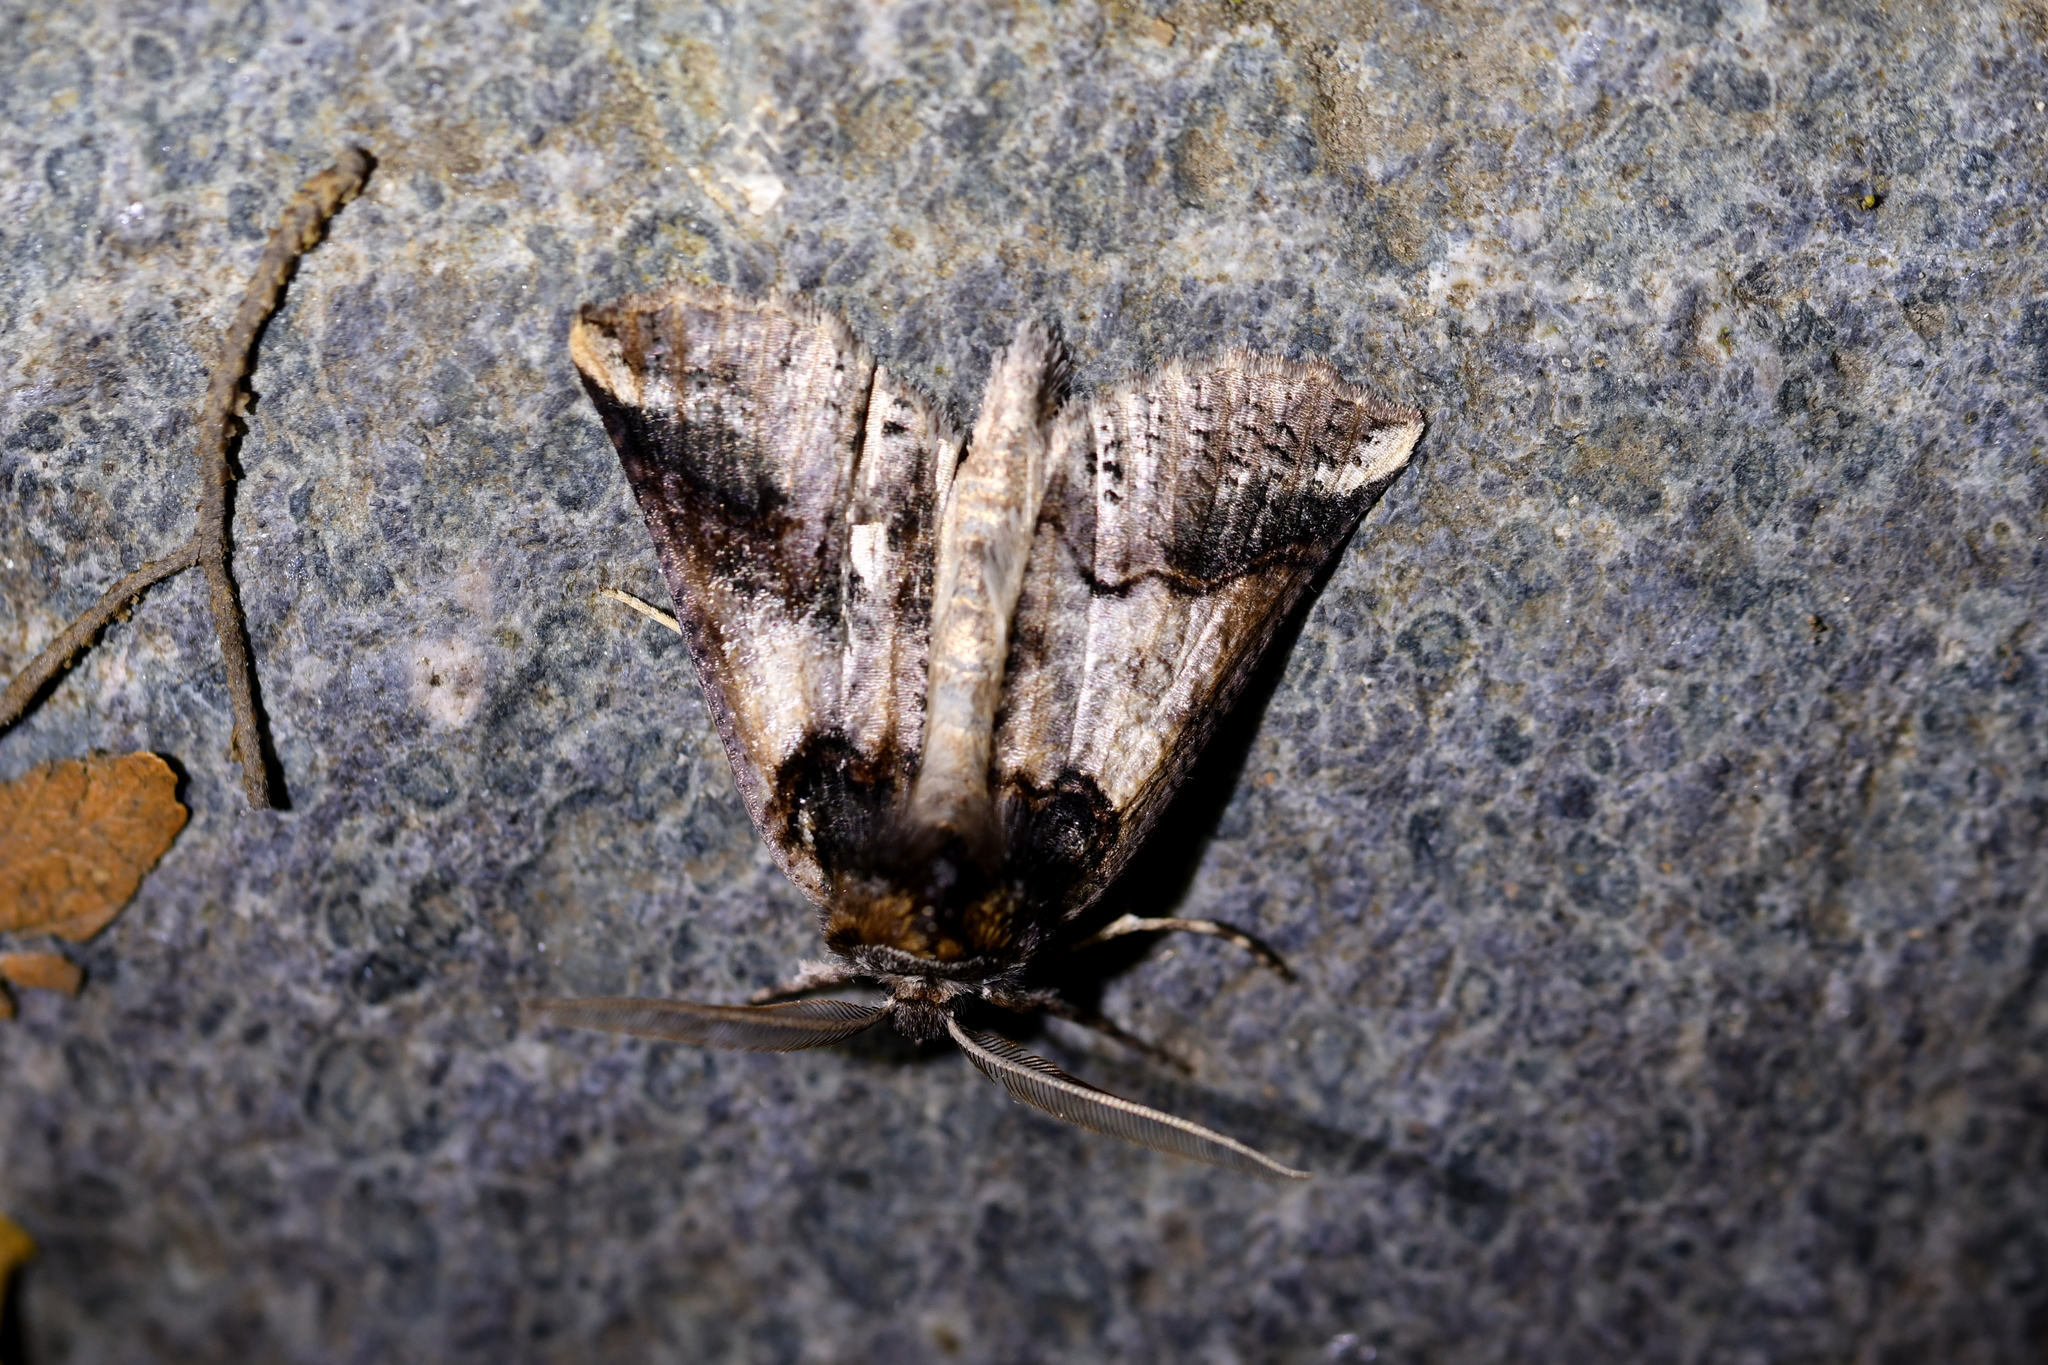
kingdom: Animalia
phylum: Arthropoda
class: Insecta
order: Lepidoptera
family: Geometridae
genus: Declana
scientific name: Declana
